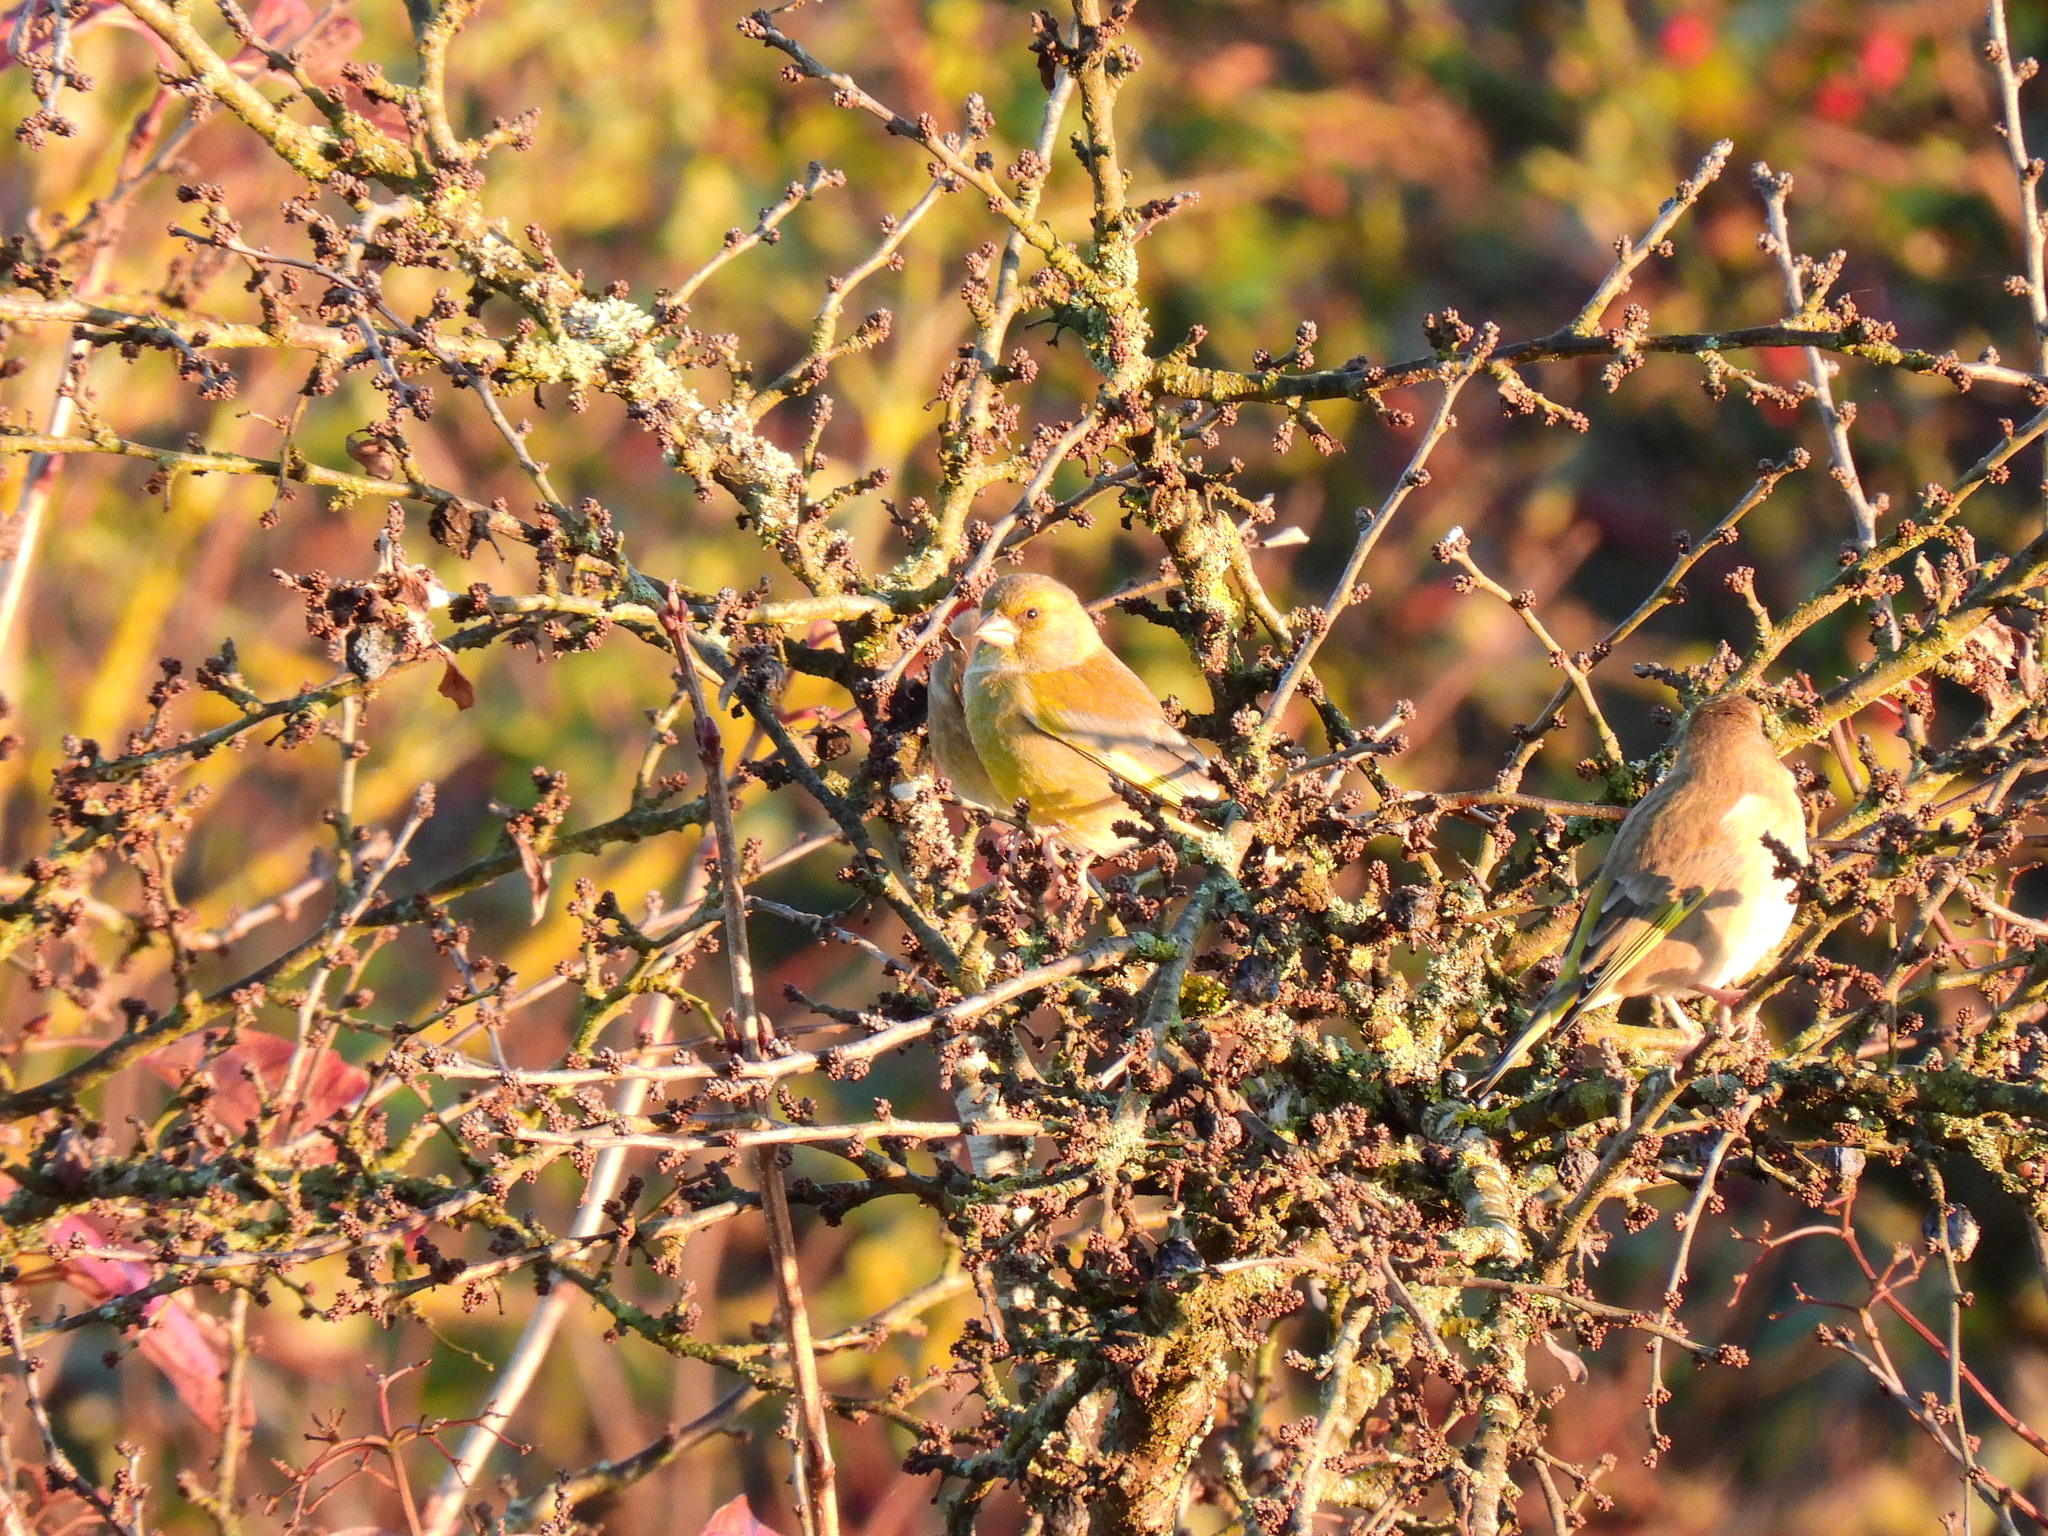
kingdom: Plantae
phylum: Tracheophyta
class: Liliopsida
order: Poales
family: Poaceae
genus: Chloris
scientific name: Chloris chloris
